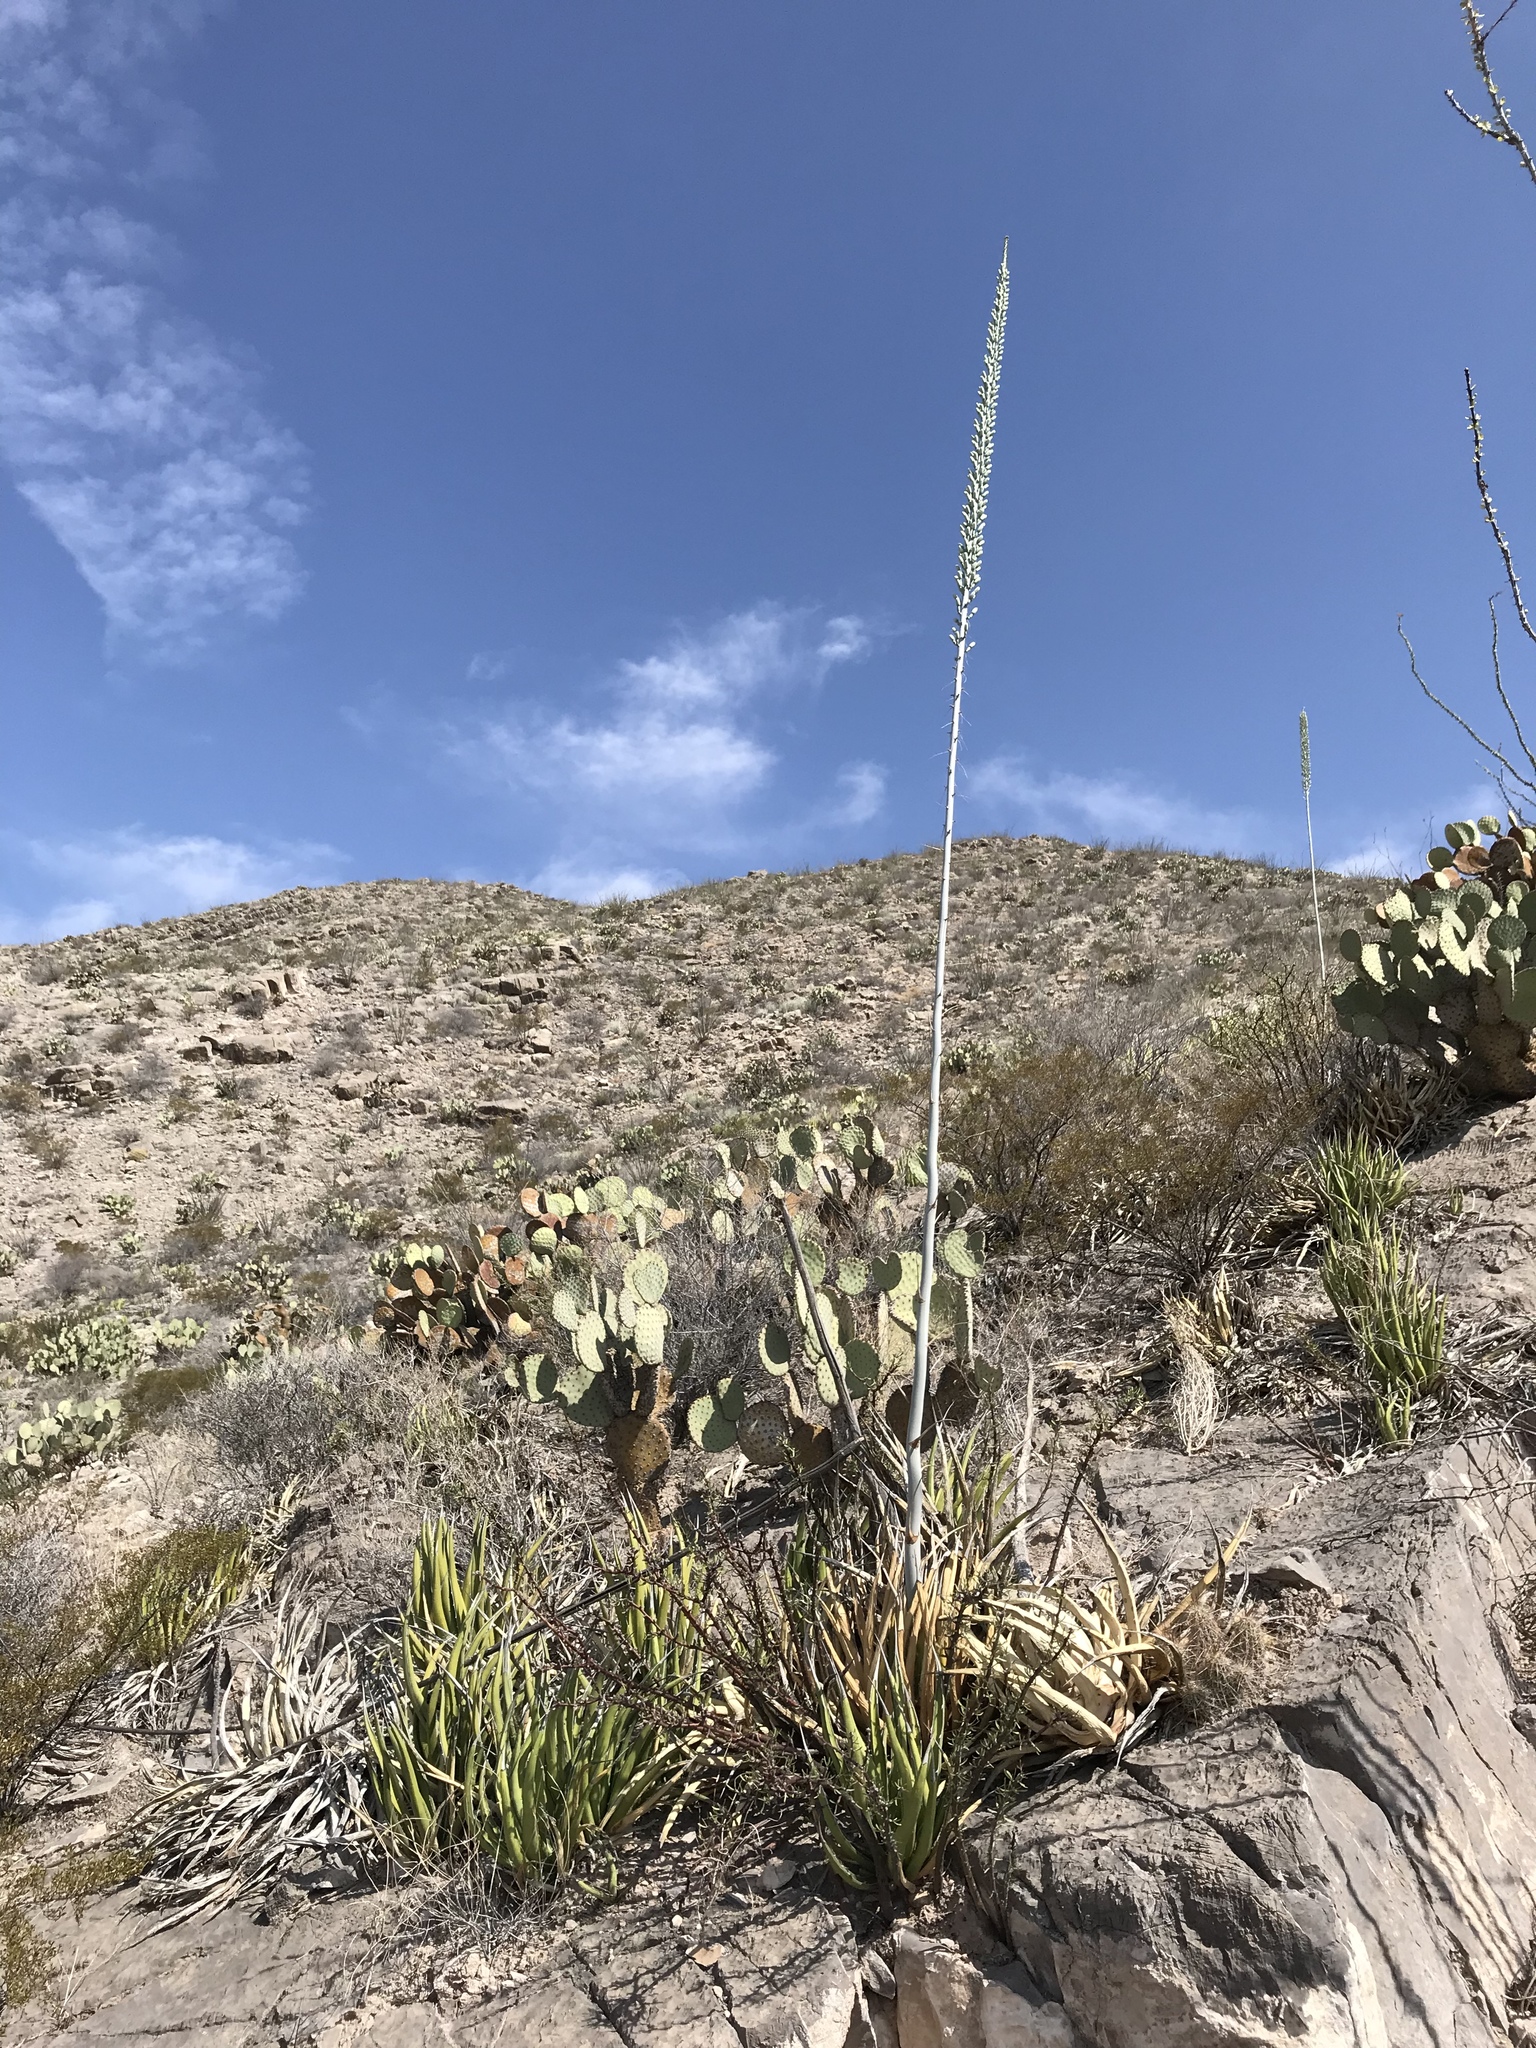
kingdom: Plantae
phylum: Tracheophyta
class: Liliopsida
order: Asparagales
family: Asparagaceae
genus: Agave
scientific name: Agave lechuguilla
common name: Lecheguilla agave
